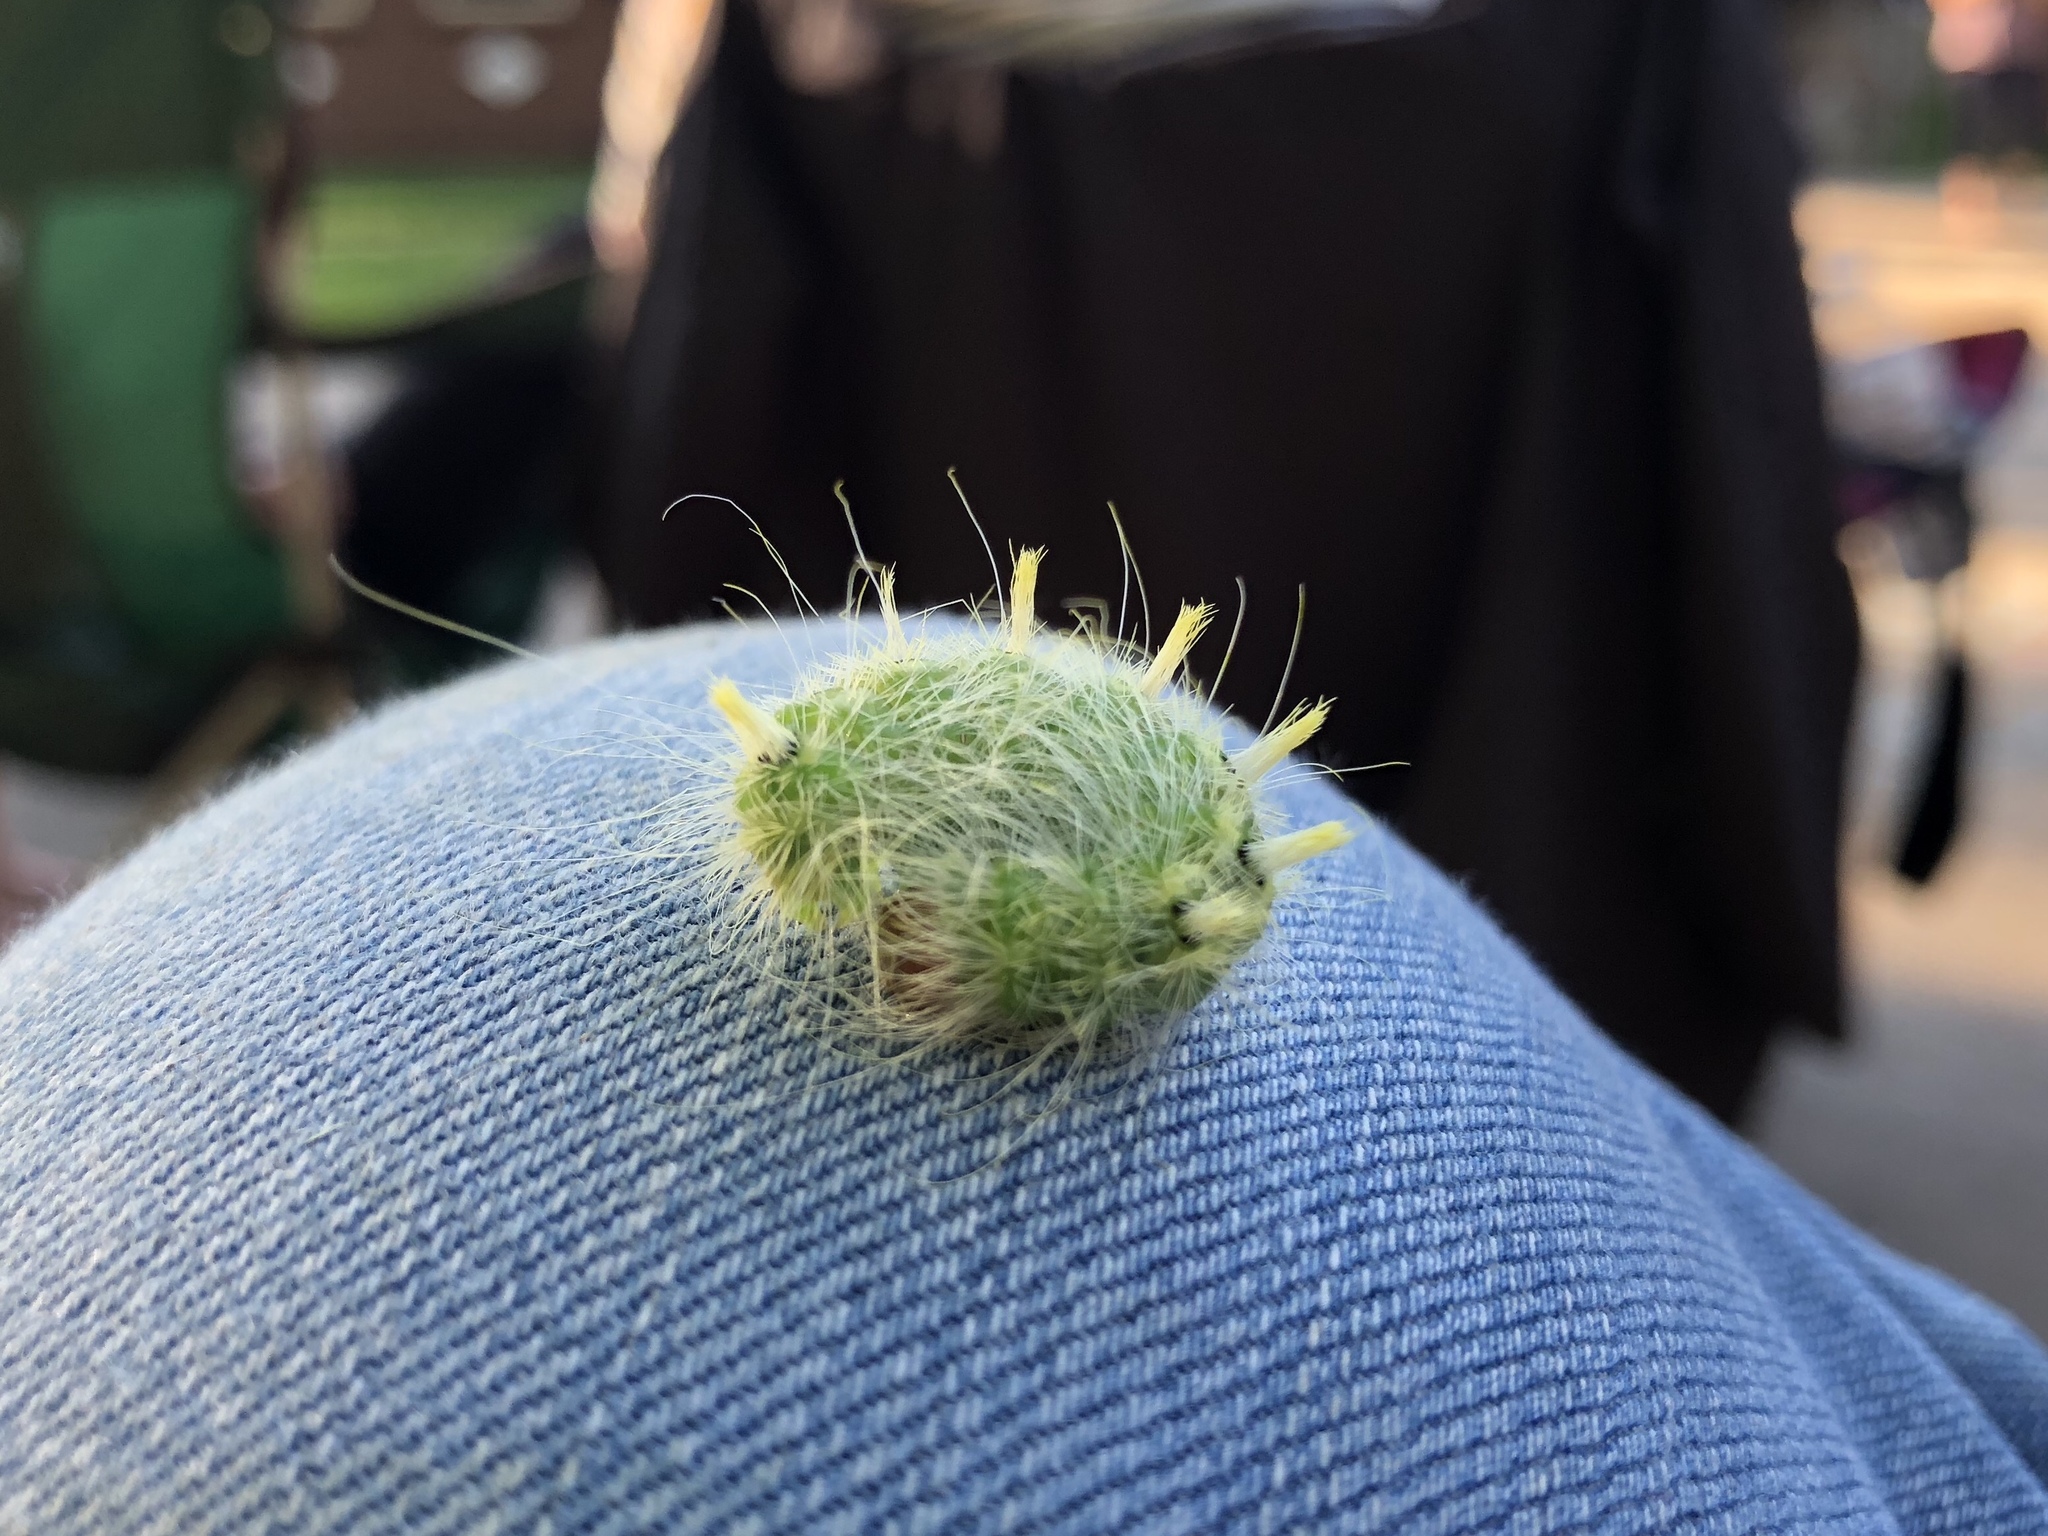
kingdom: Animalia
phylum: Arthropoda
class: Insecta
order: Lepidoptera
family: Noctuidae
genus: Acronicta
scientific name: Acronicta rubricoma
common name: Hackberry dagger
